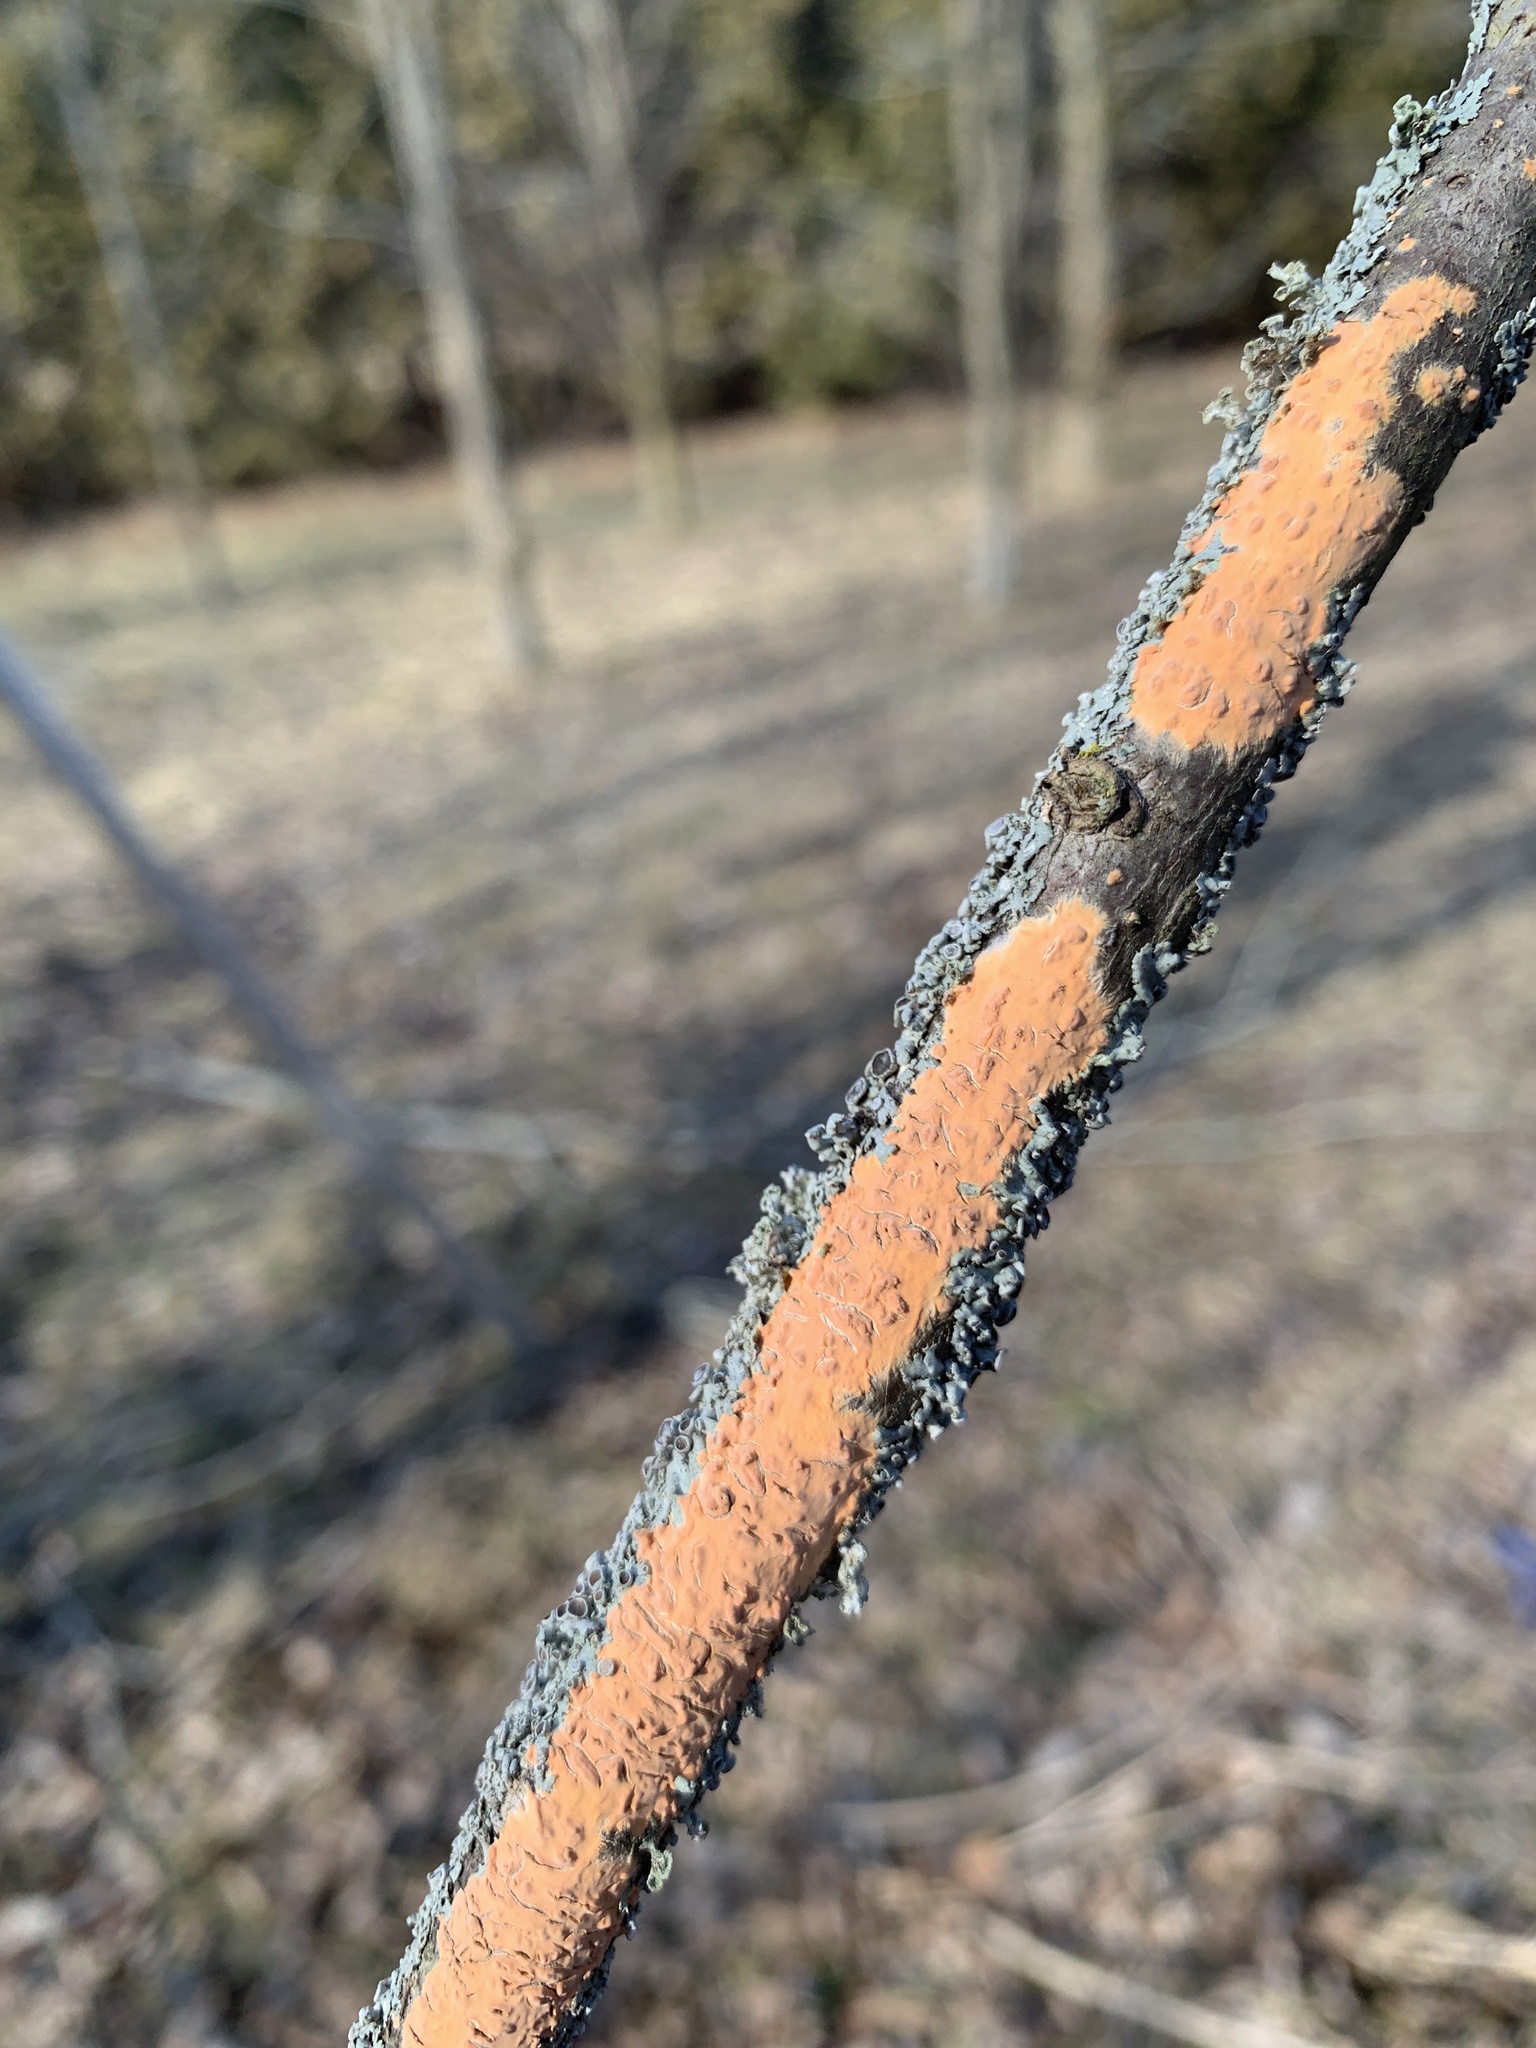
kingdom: Fungi
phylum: Basidiomycota
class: Agaricomycetes
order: Russulales
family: Peniophoraceae
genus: Peniophora
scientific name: Peniophora incarnata
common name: Rosy crust
